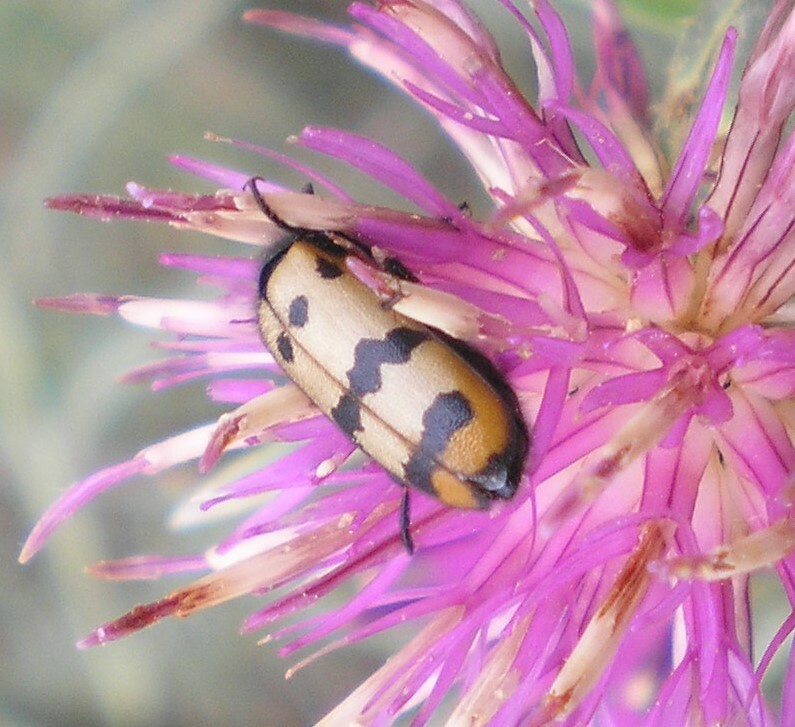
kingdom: Animalia
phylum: Arthropoda
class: Insecta
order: Coleoptera
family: Meloidae
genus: Mylabris
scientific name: Mylabris variabilis
